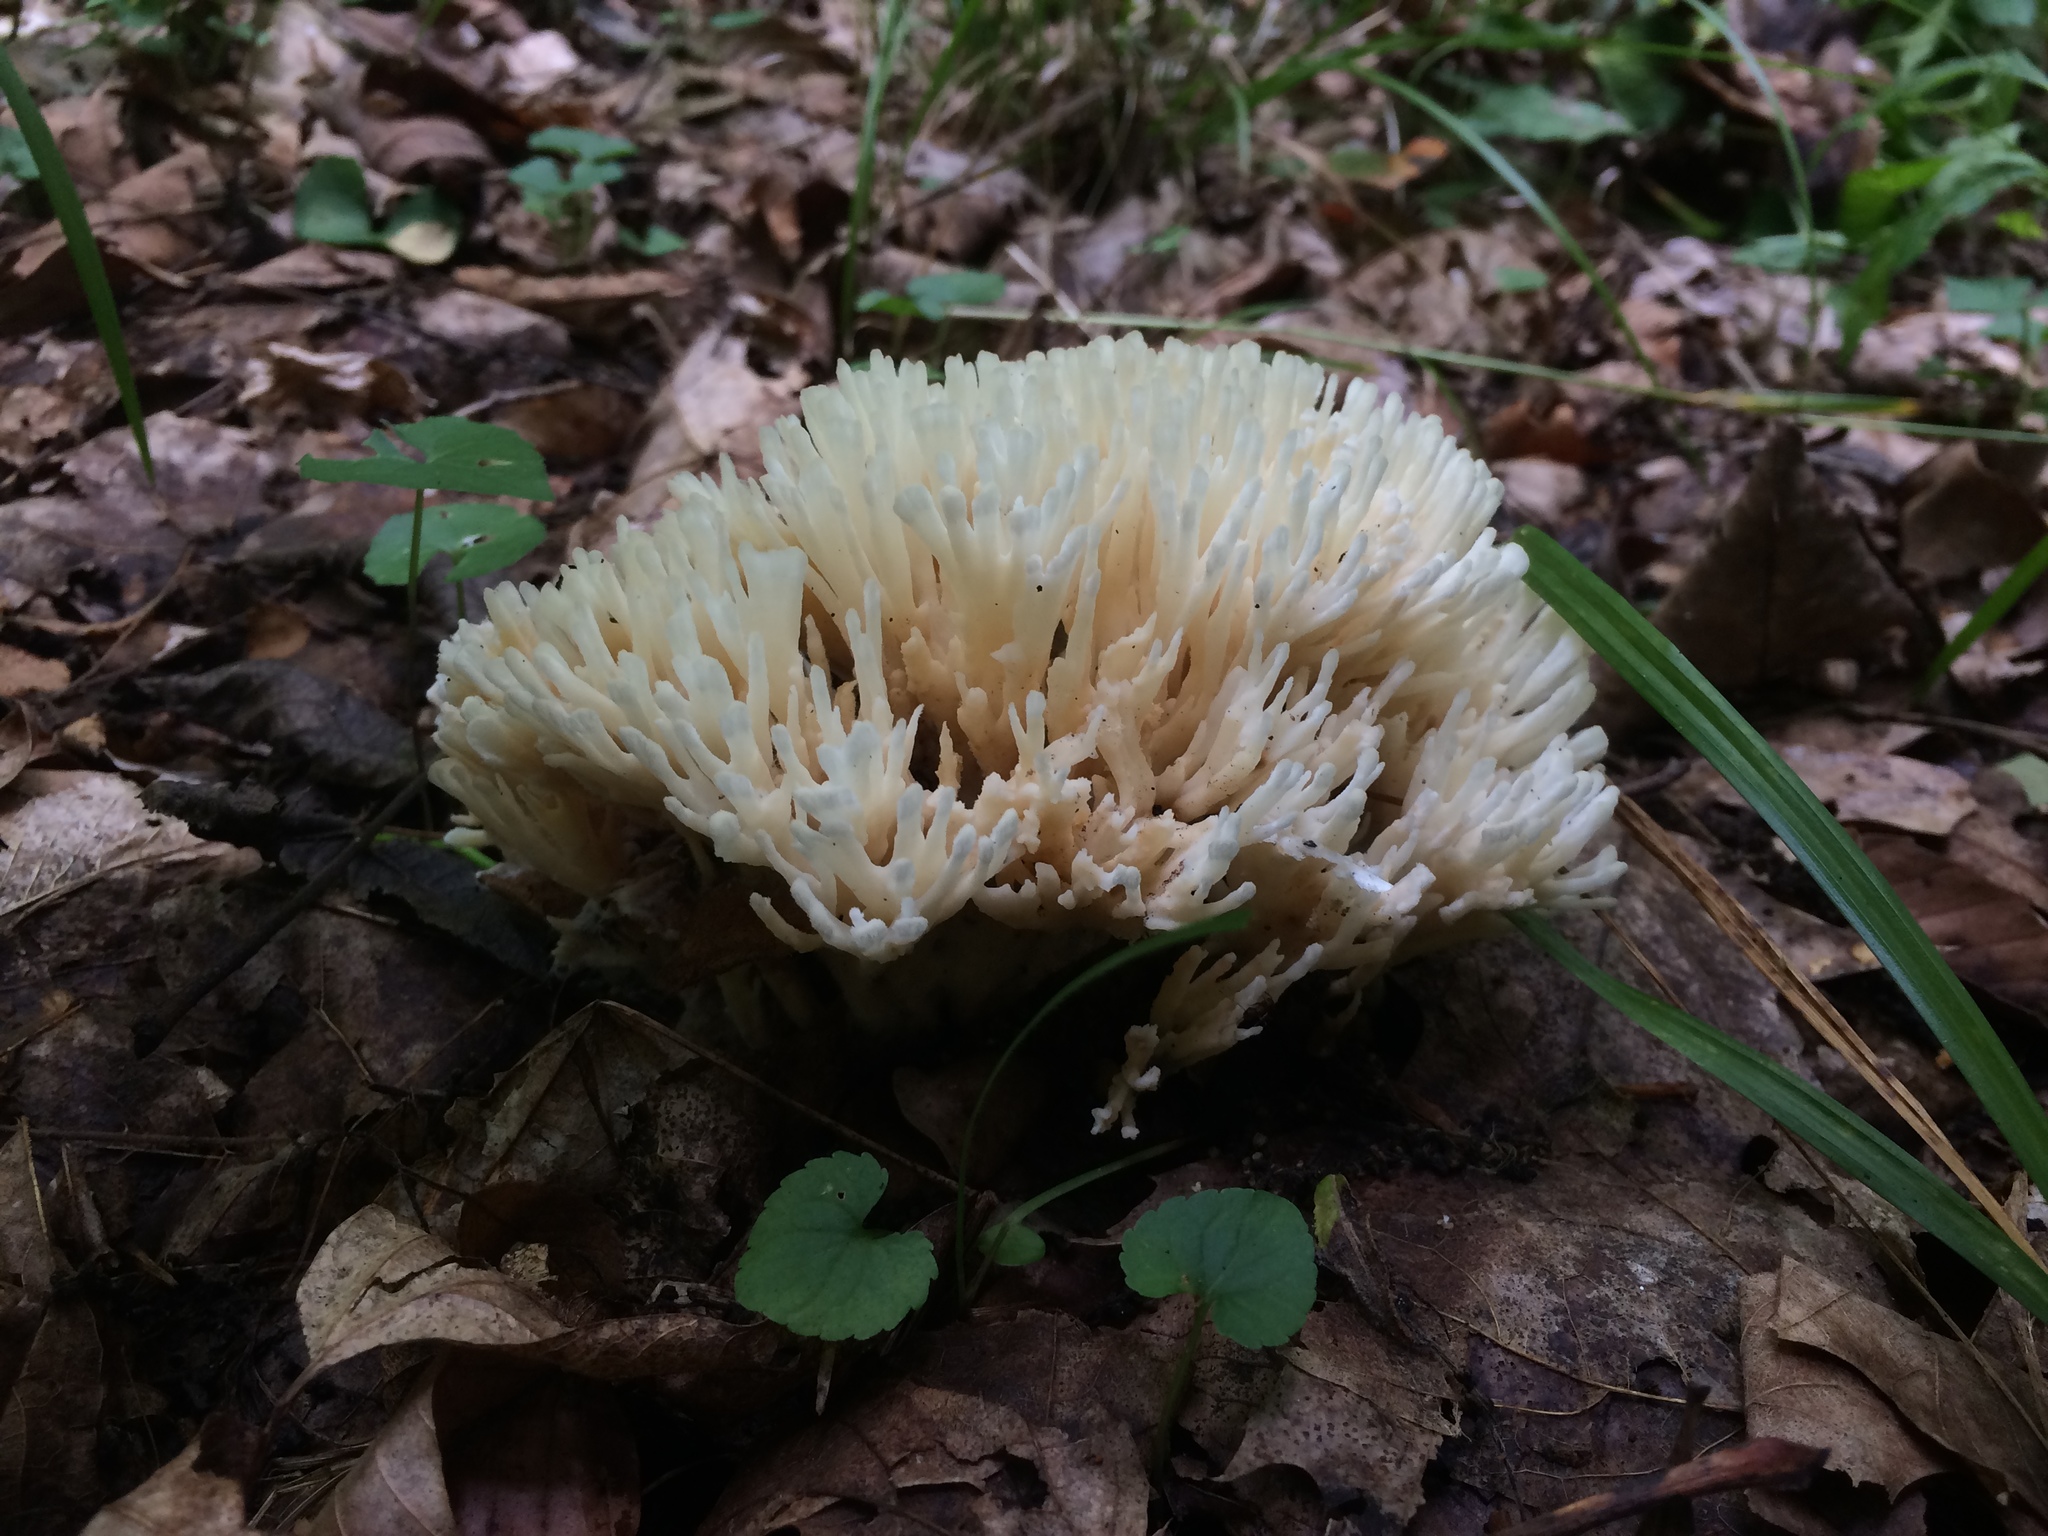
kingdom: Fungi
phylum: Basidiomycota
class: Agaricomycetes
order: Sebacinales
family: Sebacinaceae
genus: Sebacina
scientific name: Sebacina schweinitzii
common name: Jellied false coral fungus
